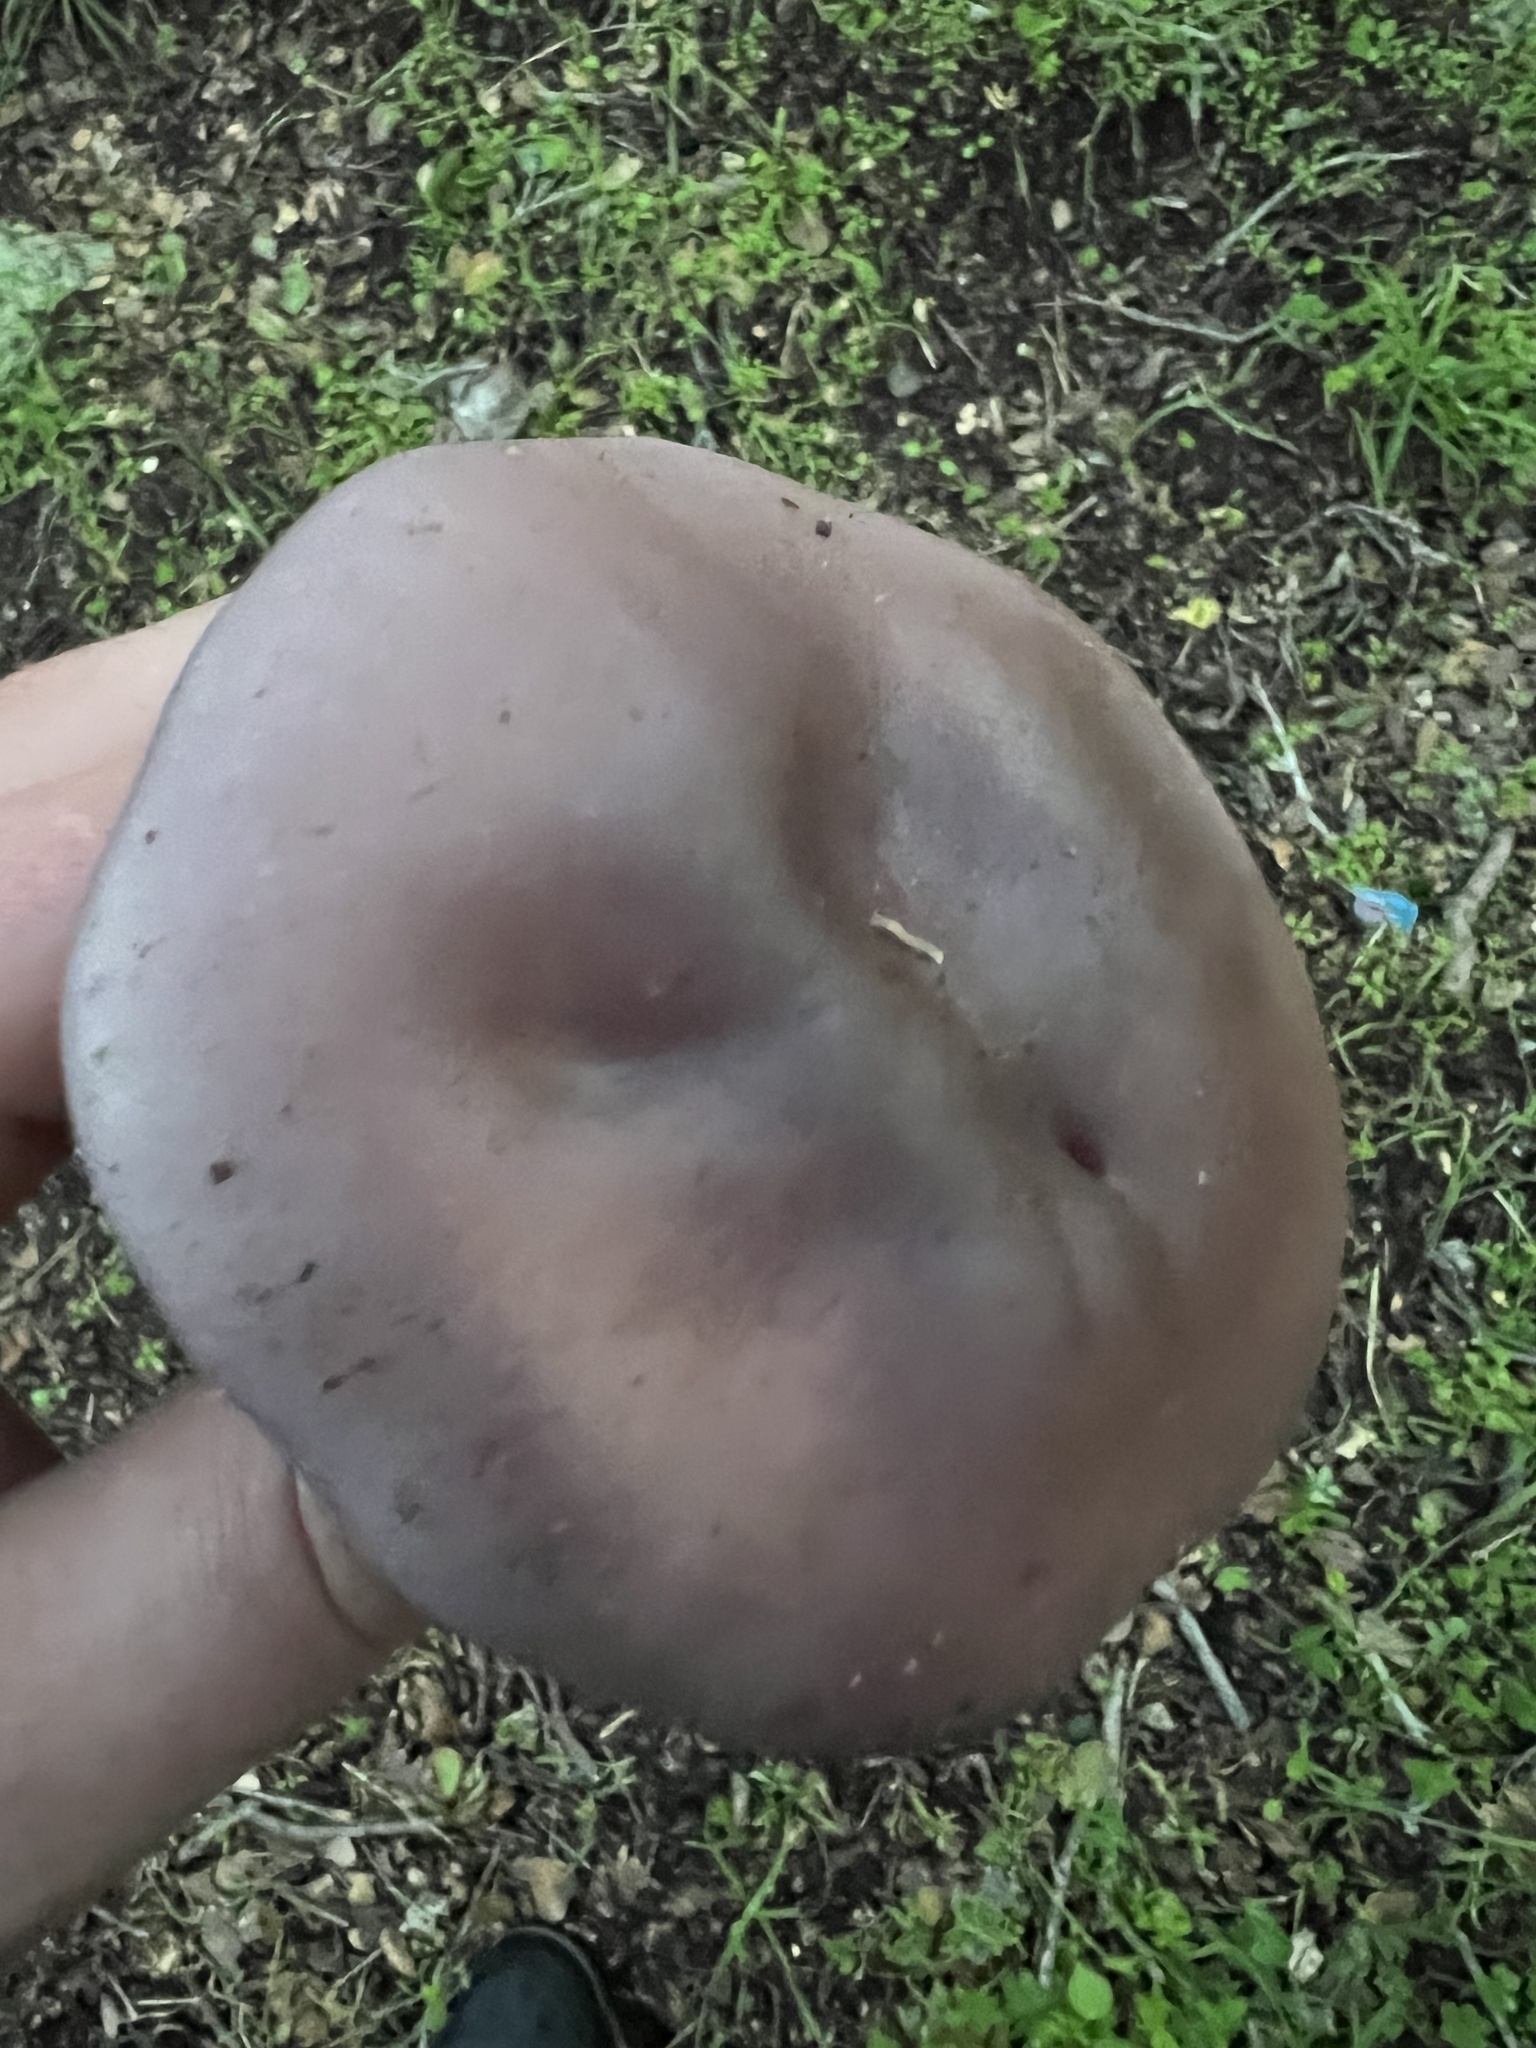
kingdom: Fungi
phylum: Basidiomycota
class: Agaricomycetes
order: Agaricales
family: Tricholomataceae
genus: Collybia
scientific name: Collybia
